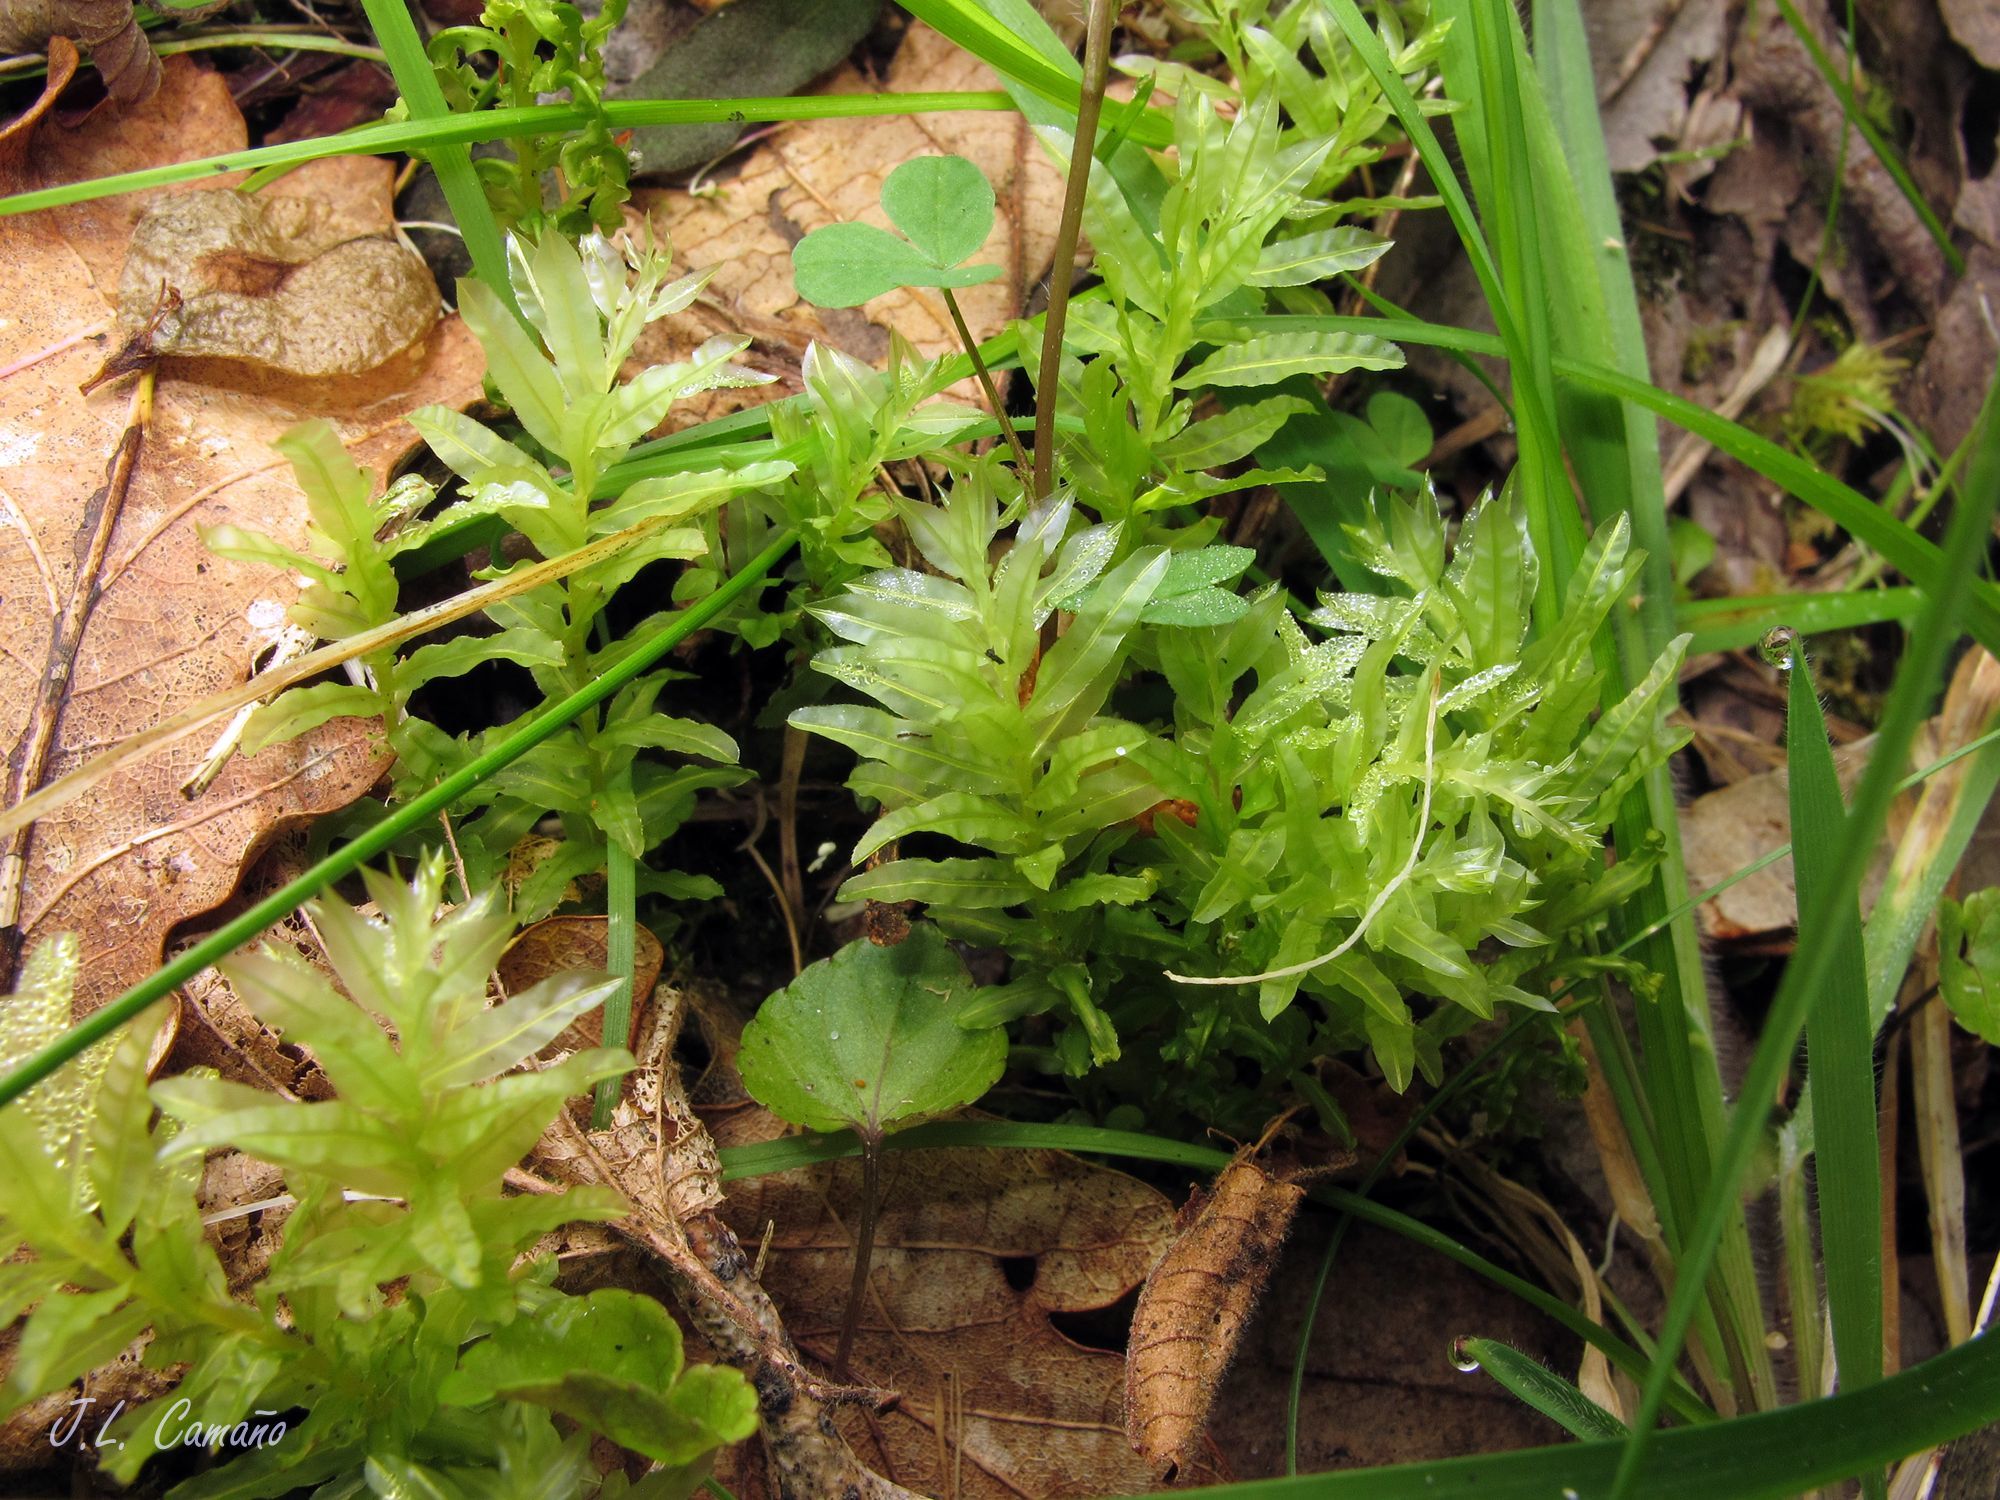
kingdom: Plantae
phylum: Bryophyta
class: Bryopsida
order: Bryales
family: Mniaceae
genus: Plagiomnium
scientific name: Plagiomnium undulatum
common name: Hart's-tongue thyme-moss
